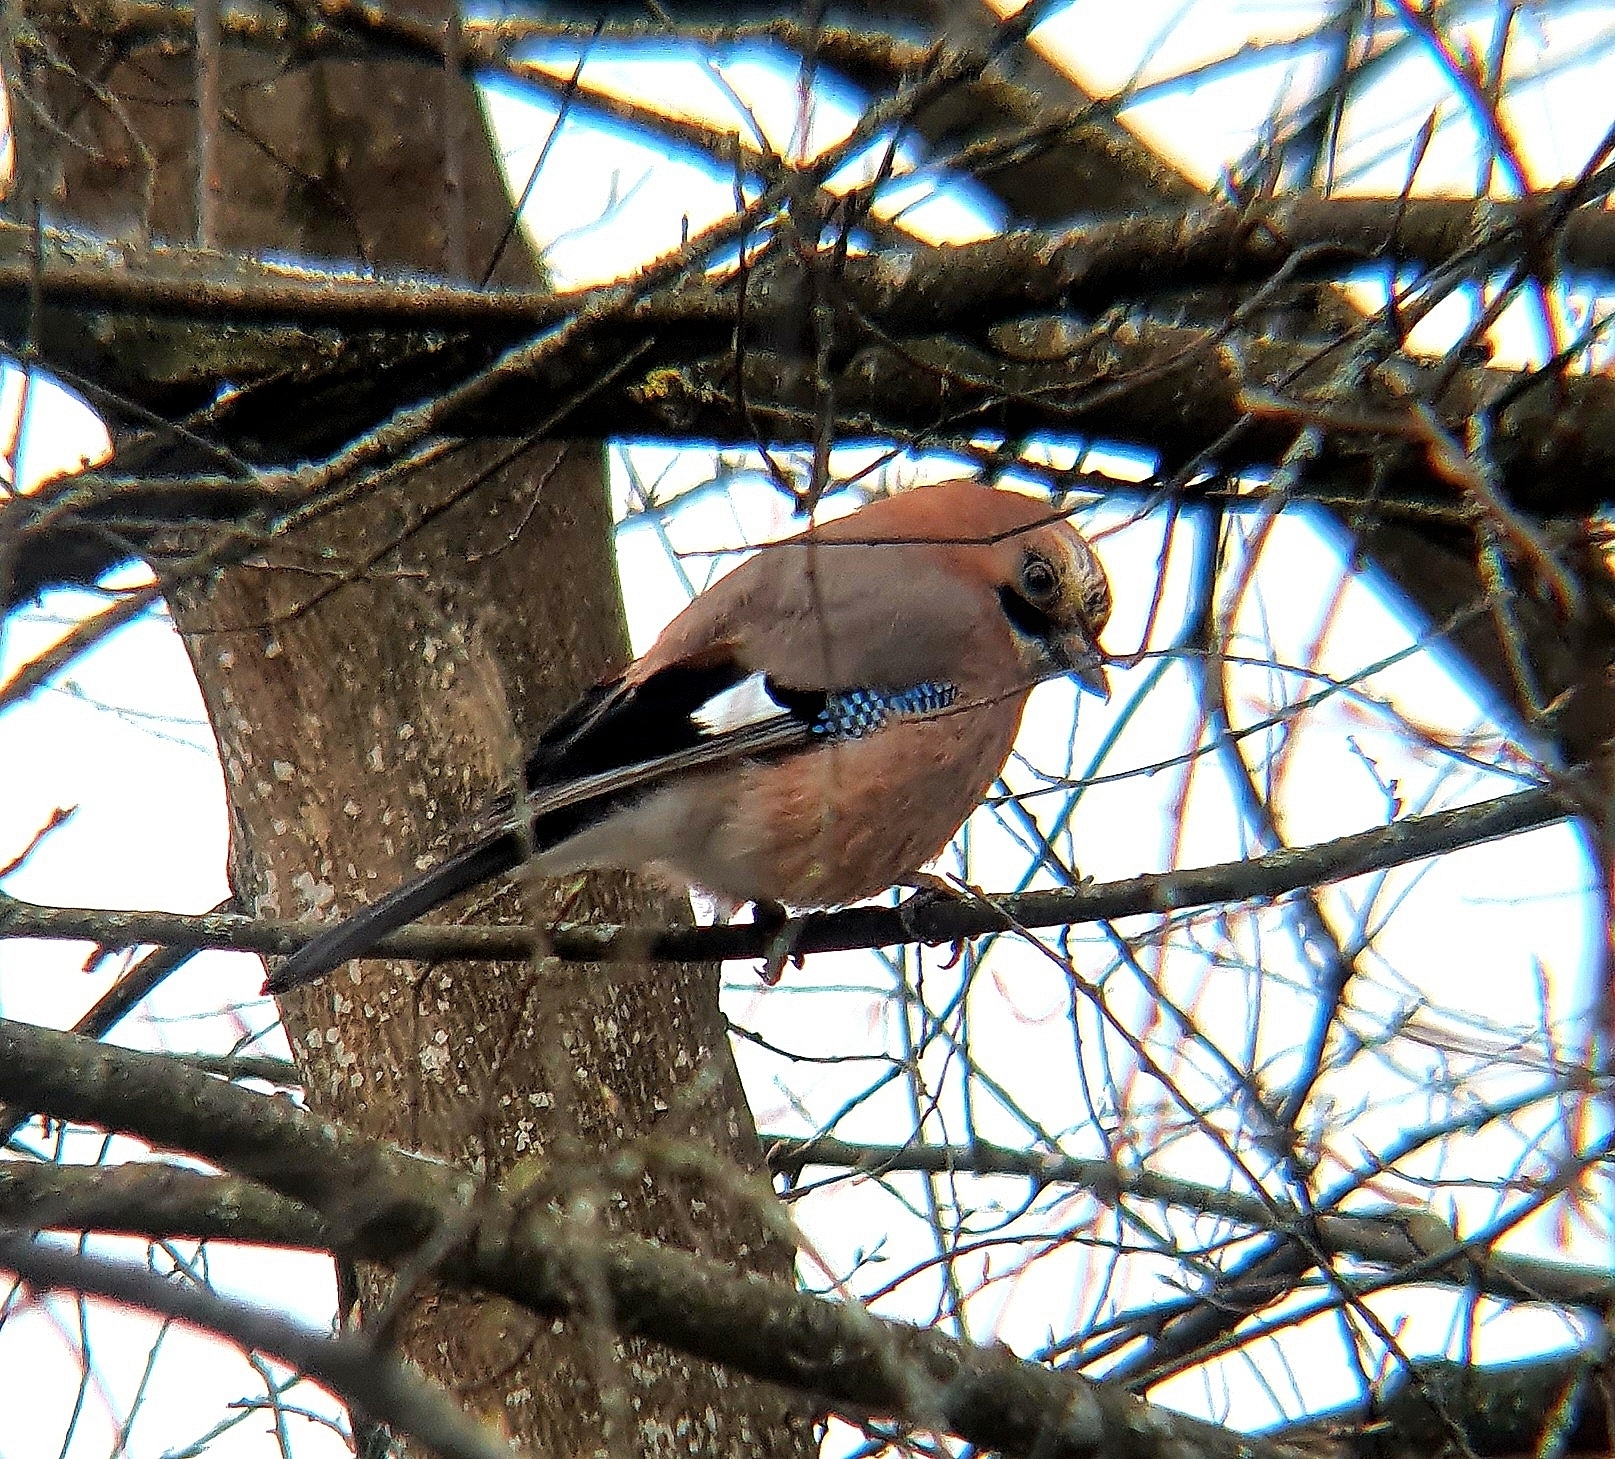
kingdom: Animalia
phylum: Chordata
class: Aves
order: Passeriformes
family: Corvidae
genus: Garrulus
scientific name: Garrulus glandarius
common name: Eurasian jay
